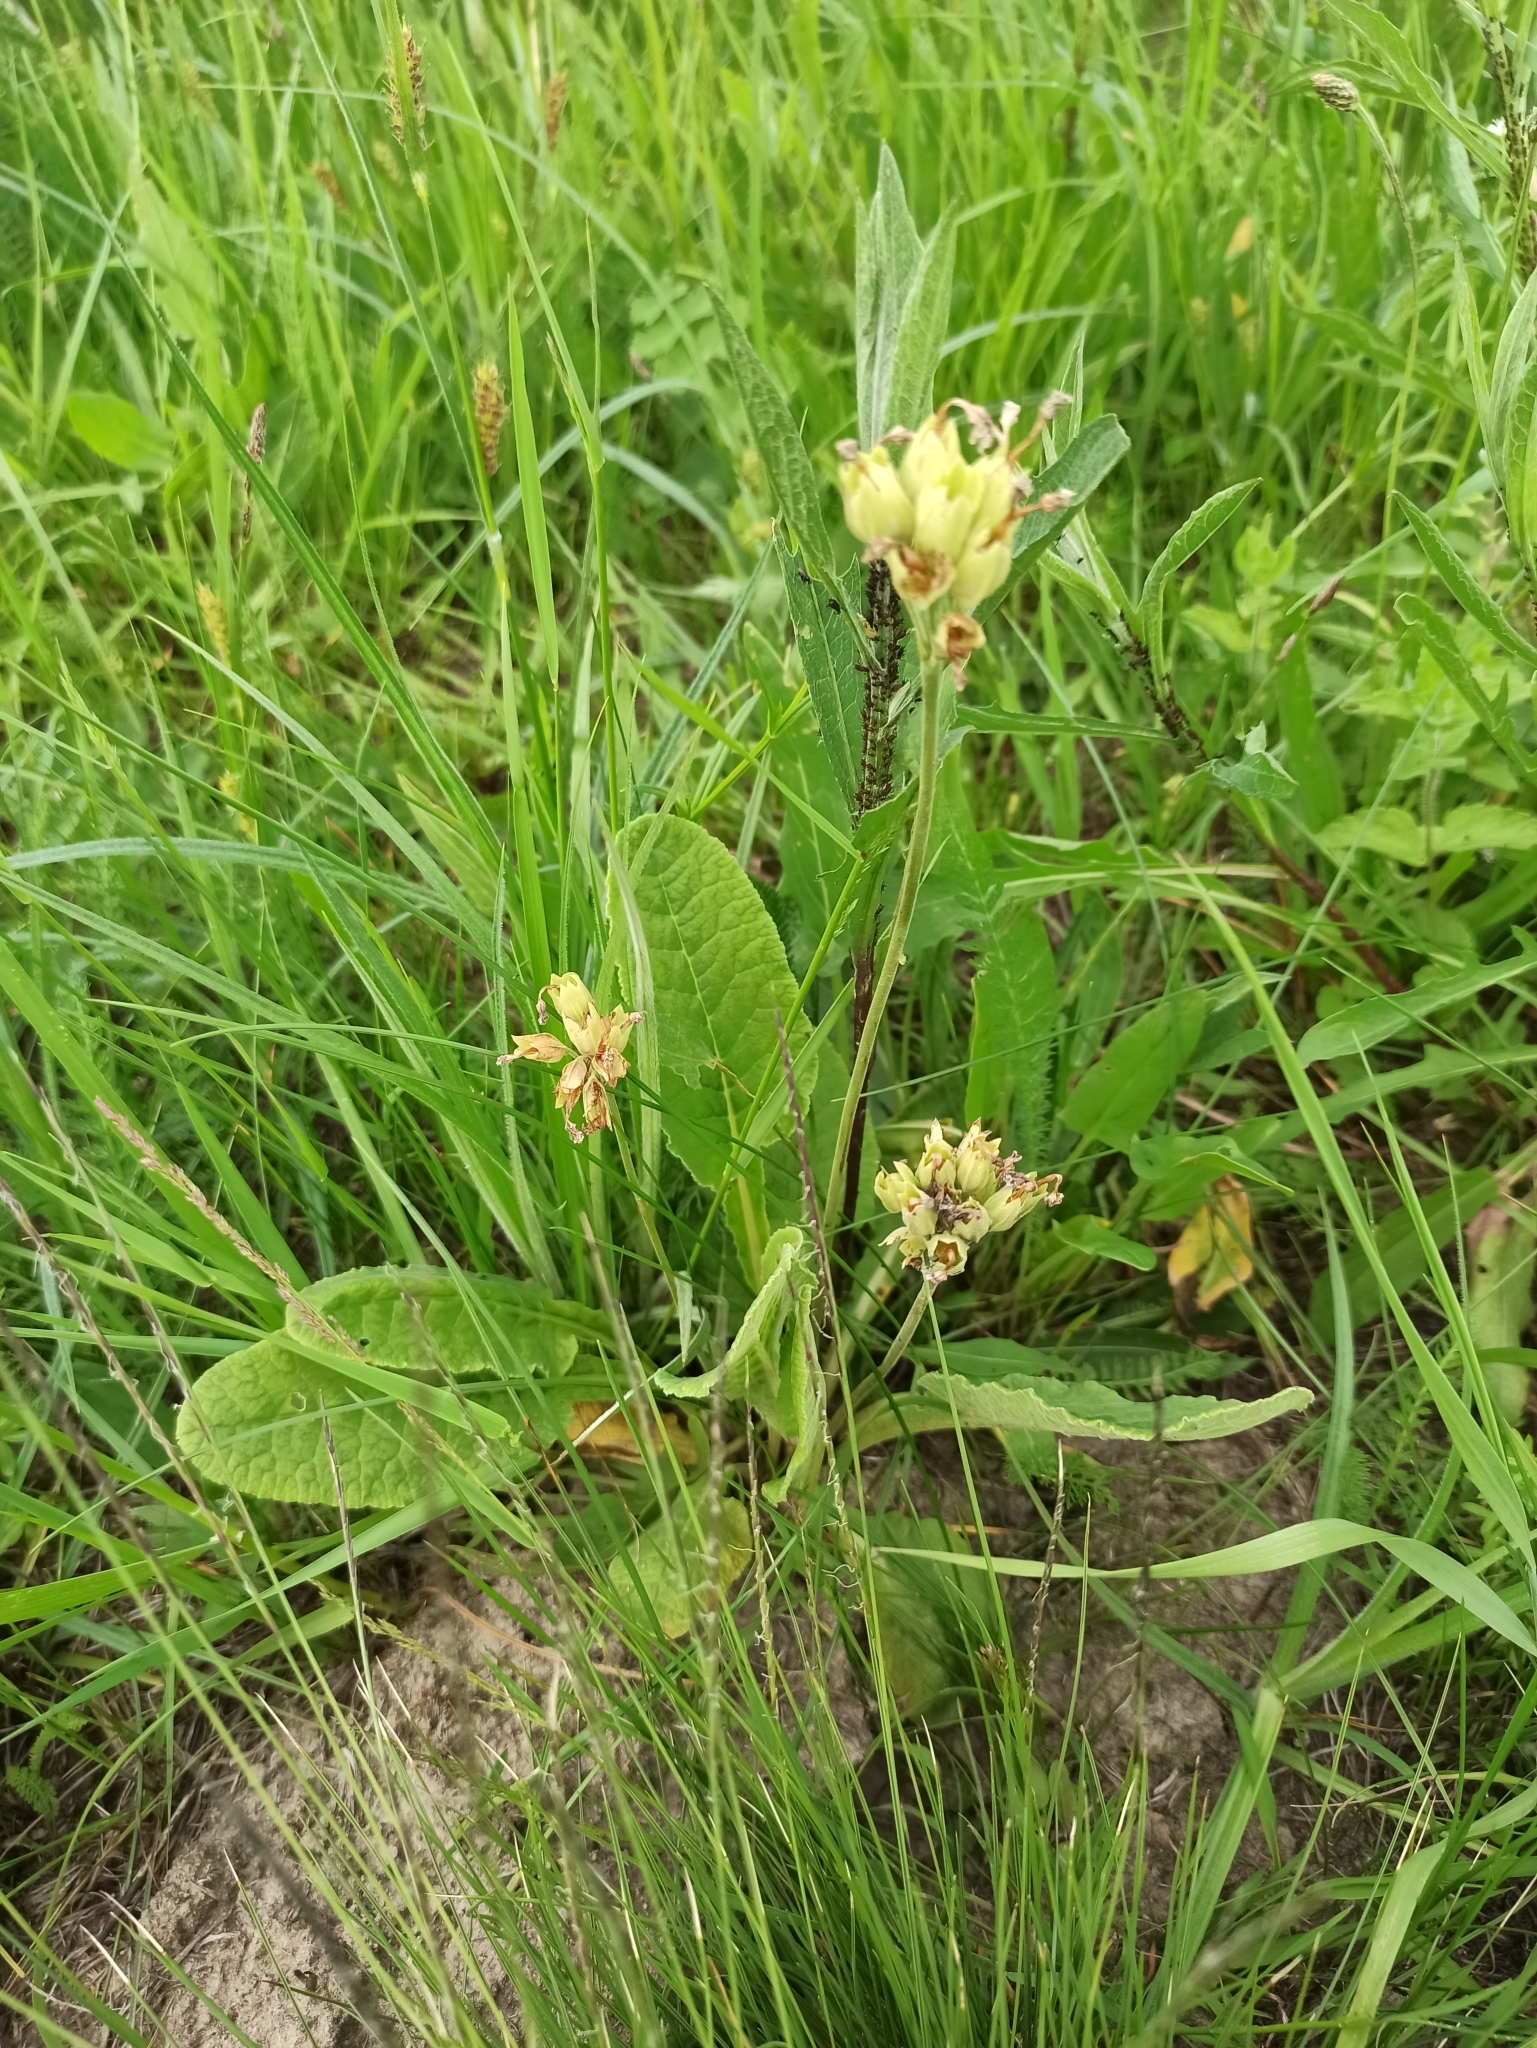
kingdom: Plantae
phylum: Tracheophyta
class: Magnoliopsida
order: Ericales
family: Primulaceae
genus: Primula
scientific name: Primula veris
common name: Cowslip
